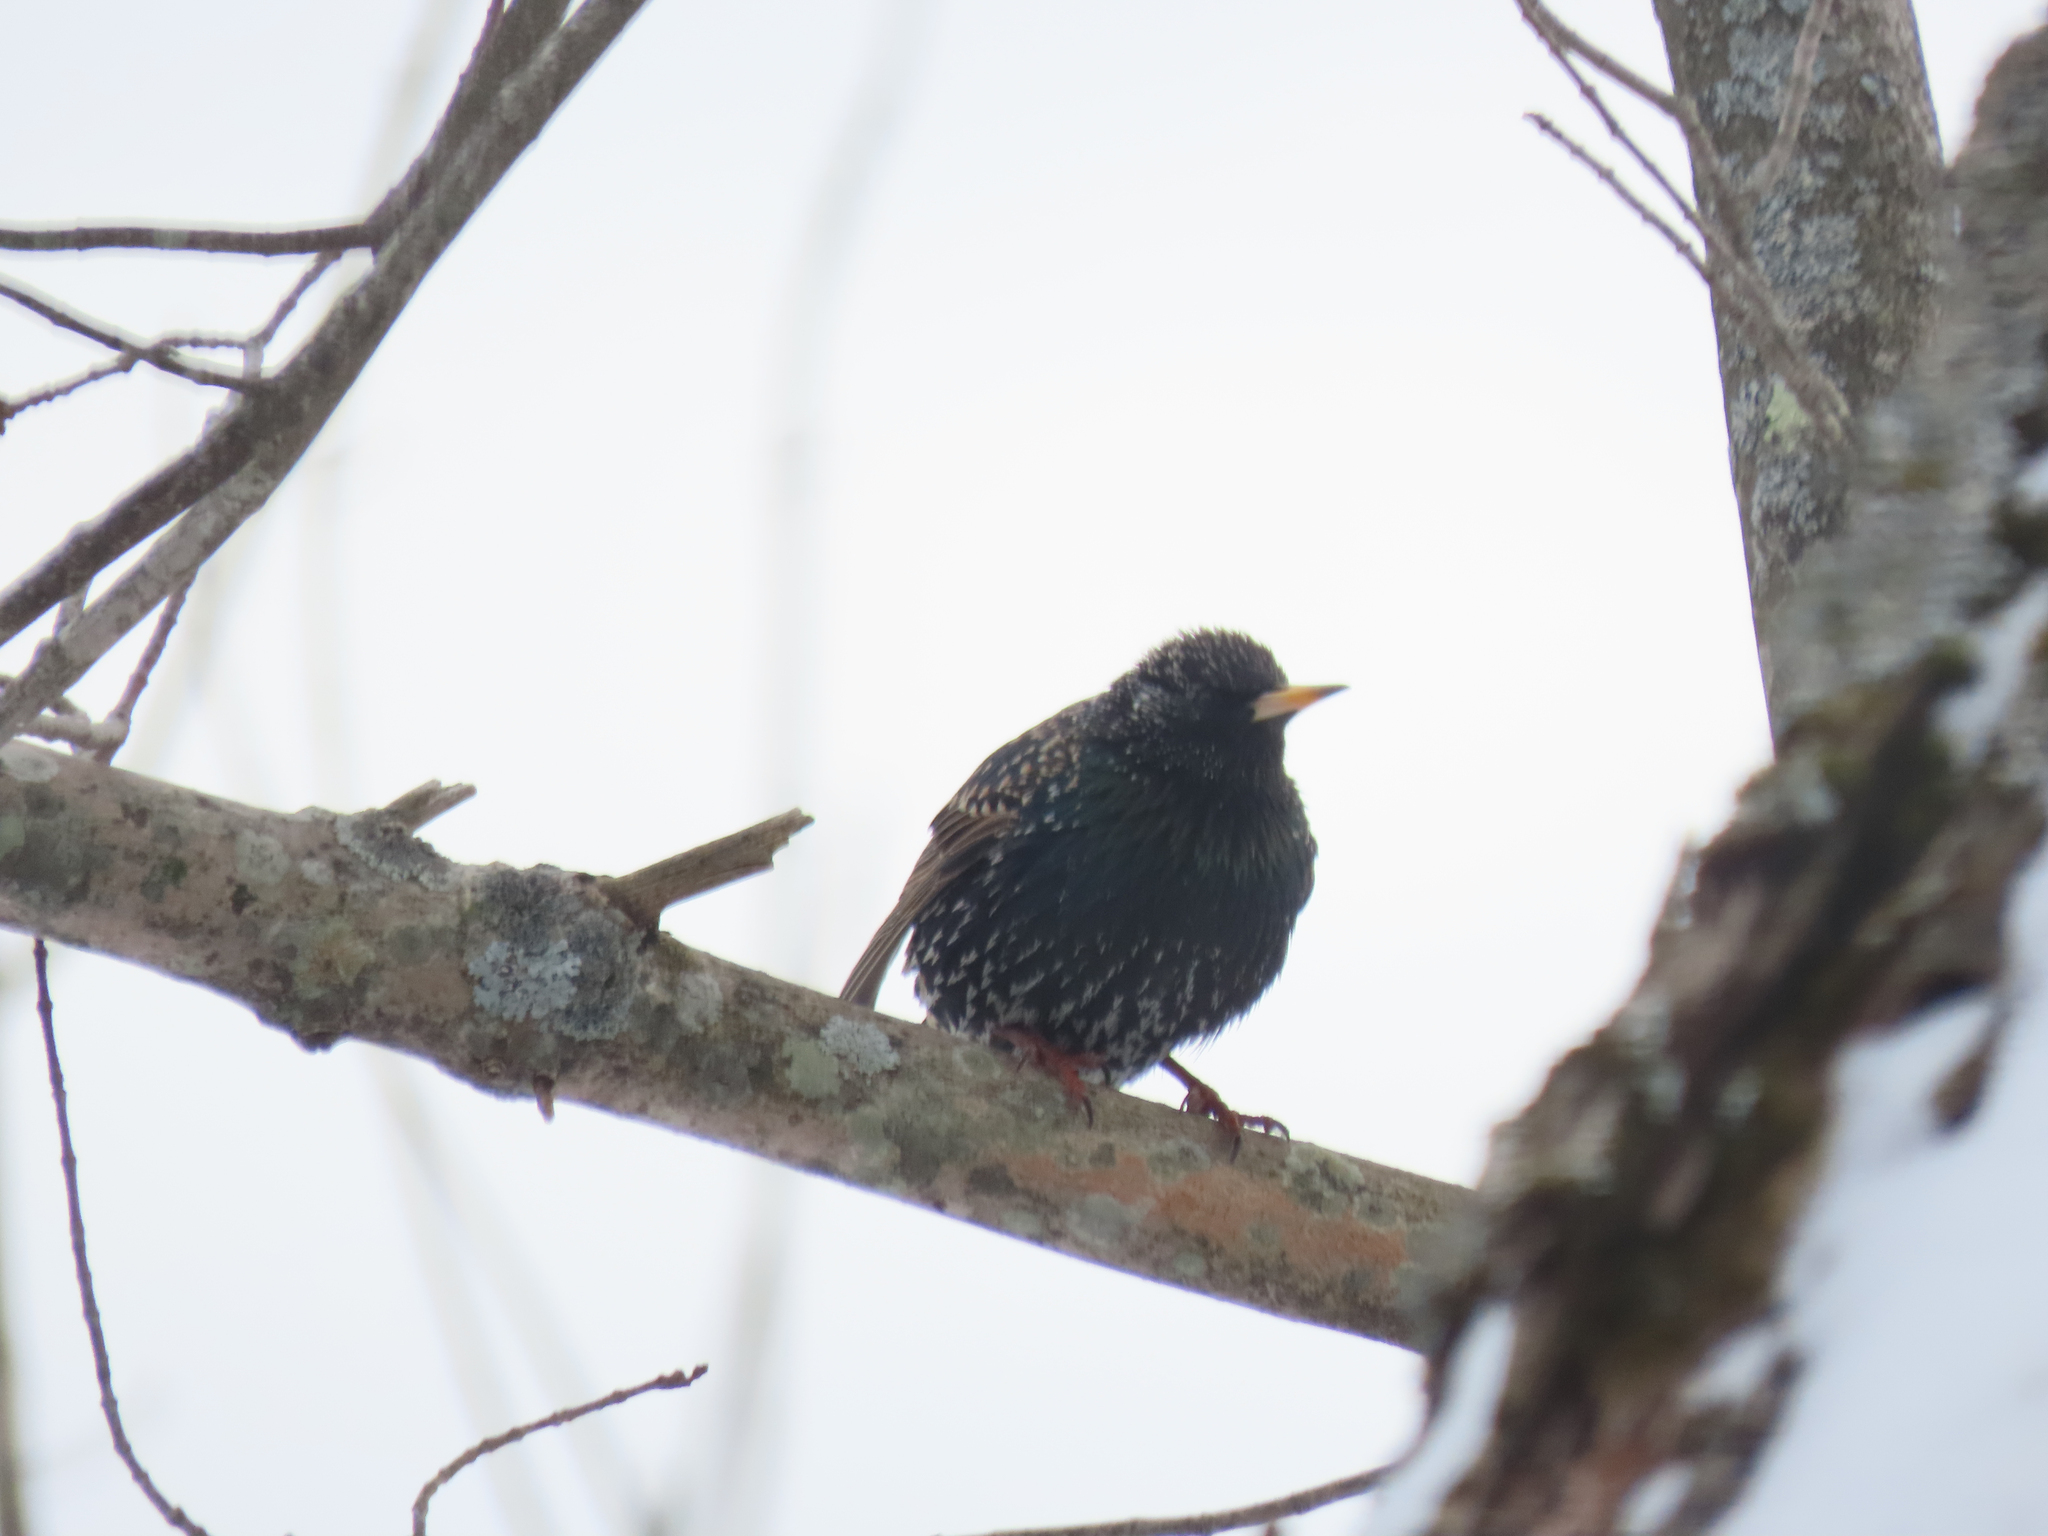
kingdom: Animalia
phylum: Chordata
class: Aves
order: Passeriformes
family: Sturnidae
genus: Sturnus
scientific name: Sturnus vulgaris
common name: Common starling
